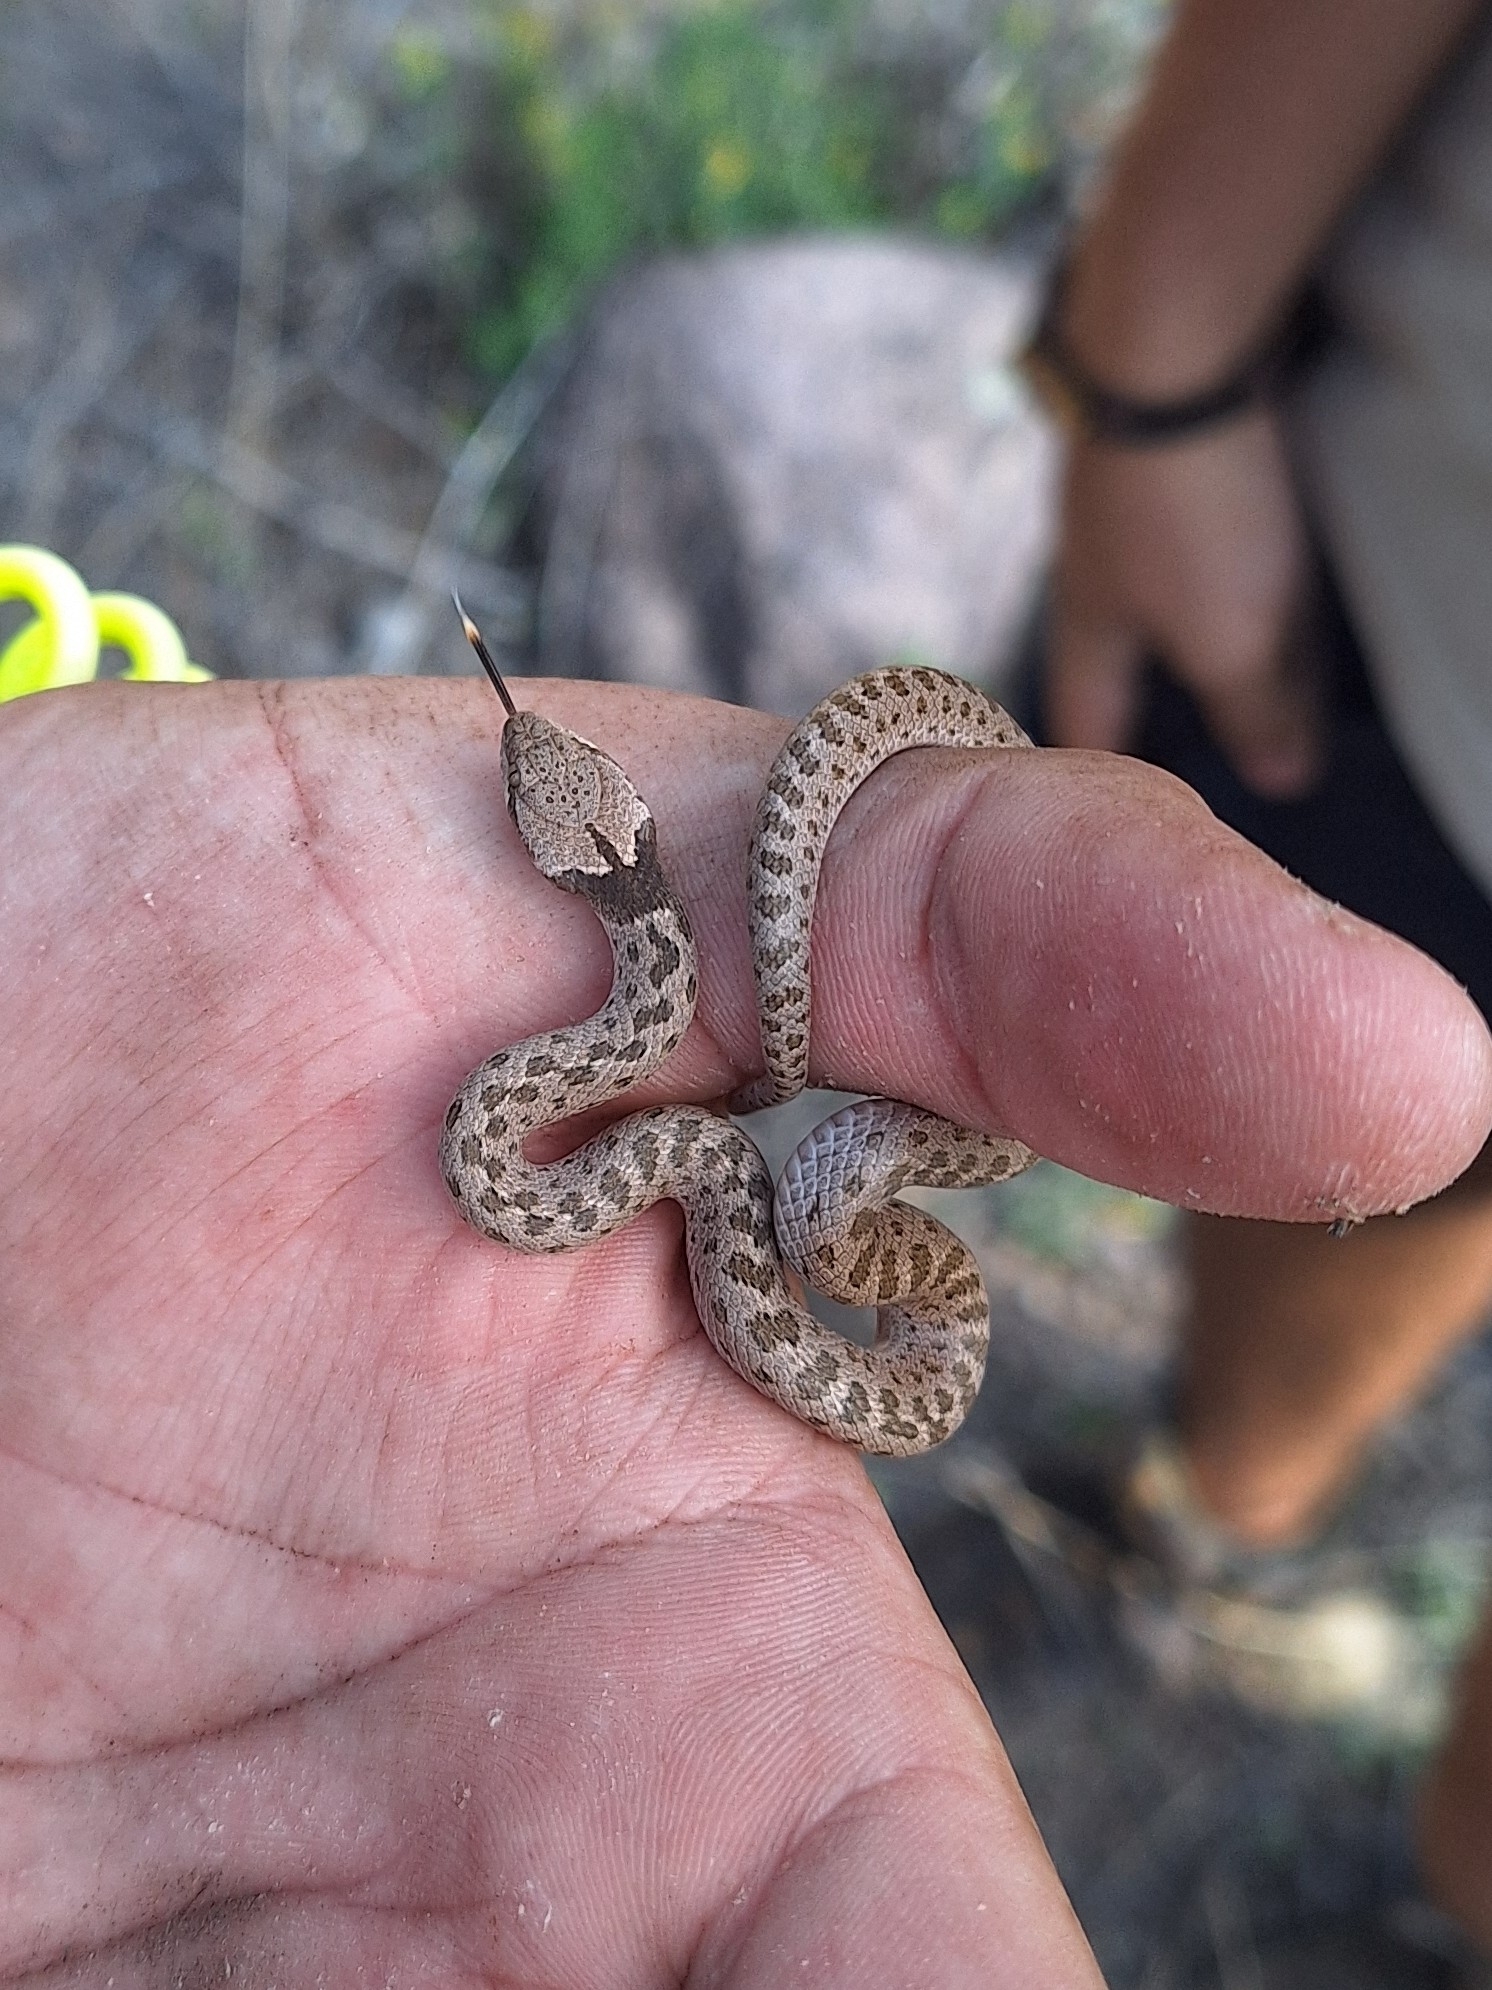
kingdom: Animalia
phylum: Chordata
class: Squamata
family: Colubridae
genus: Hypsiglena
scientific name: Hypsiglena chlorophaea
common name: Desert nightsnake
